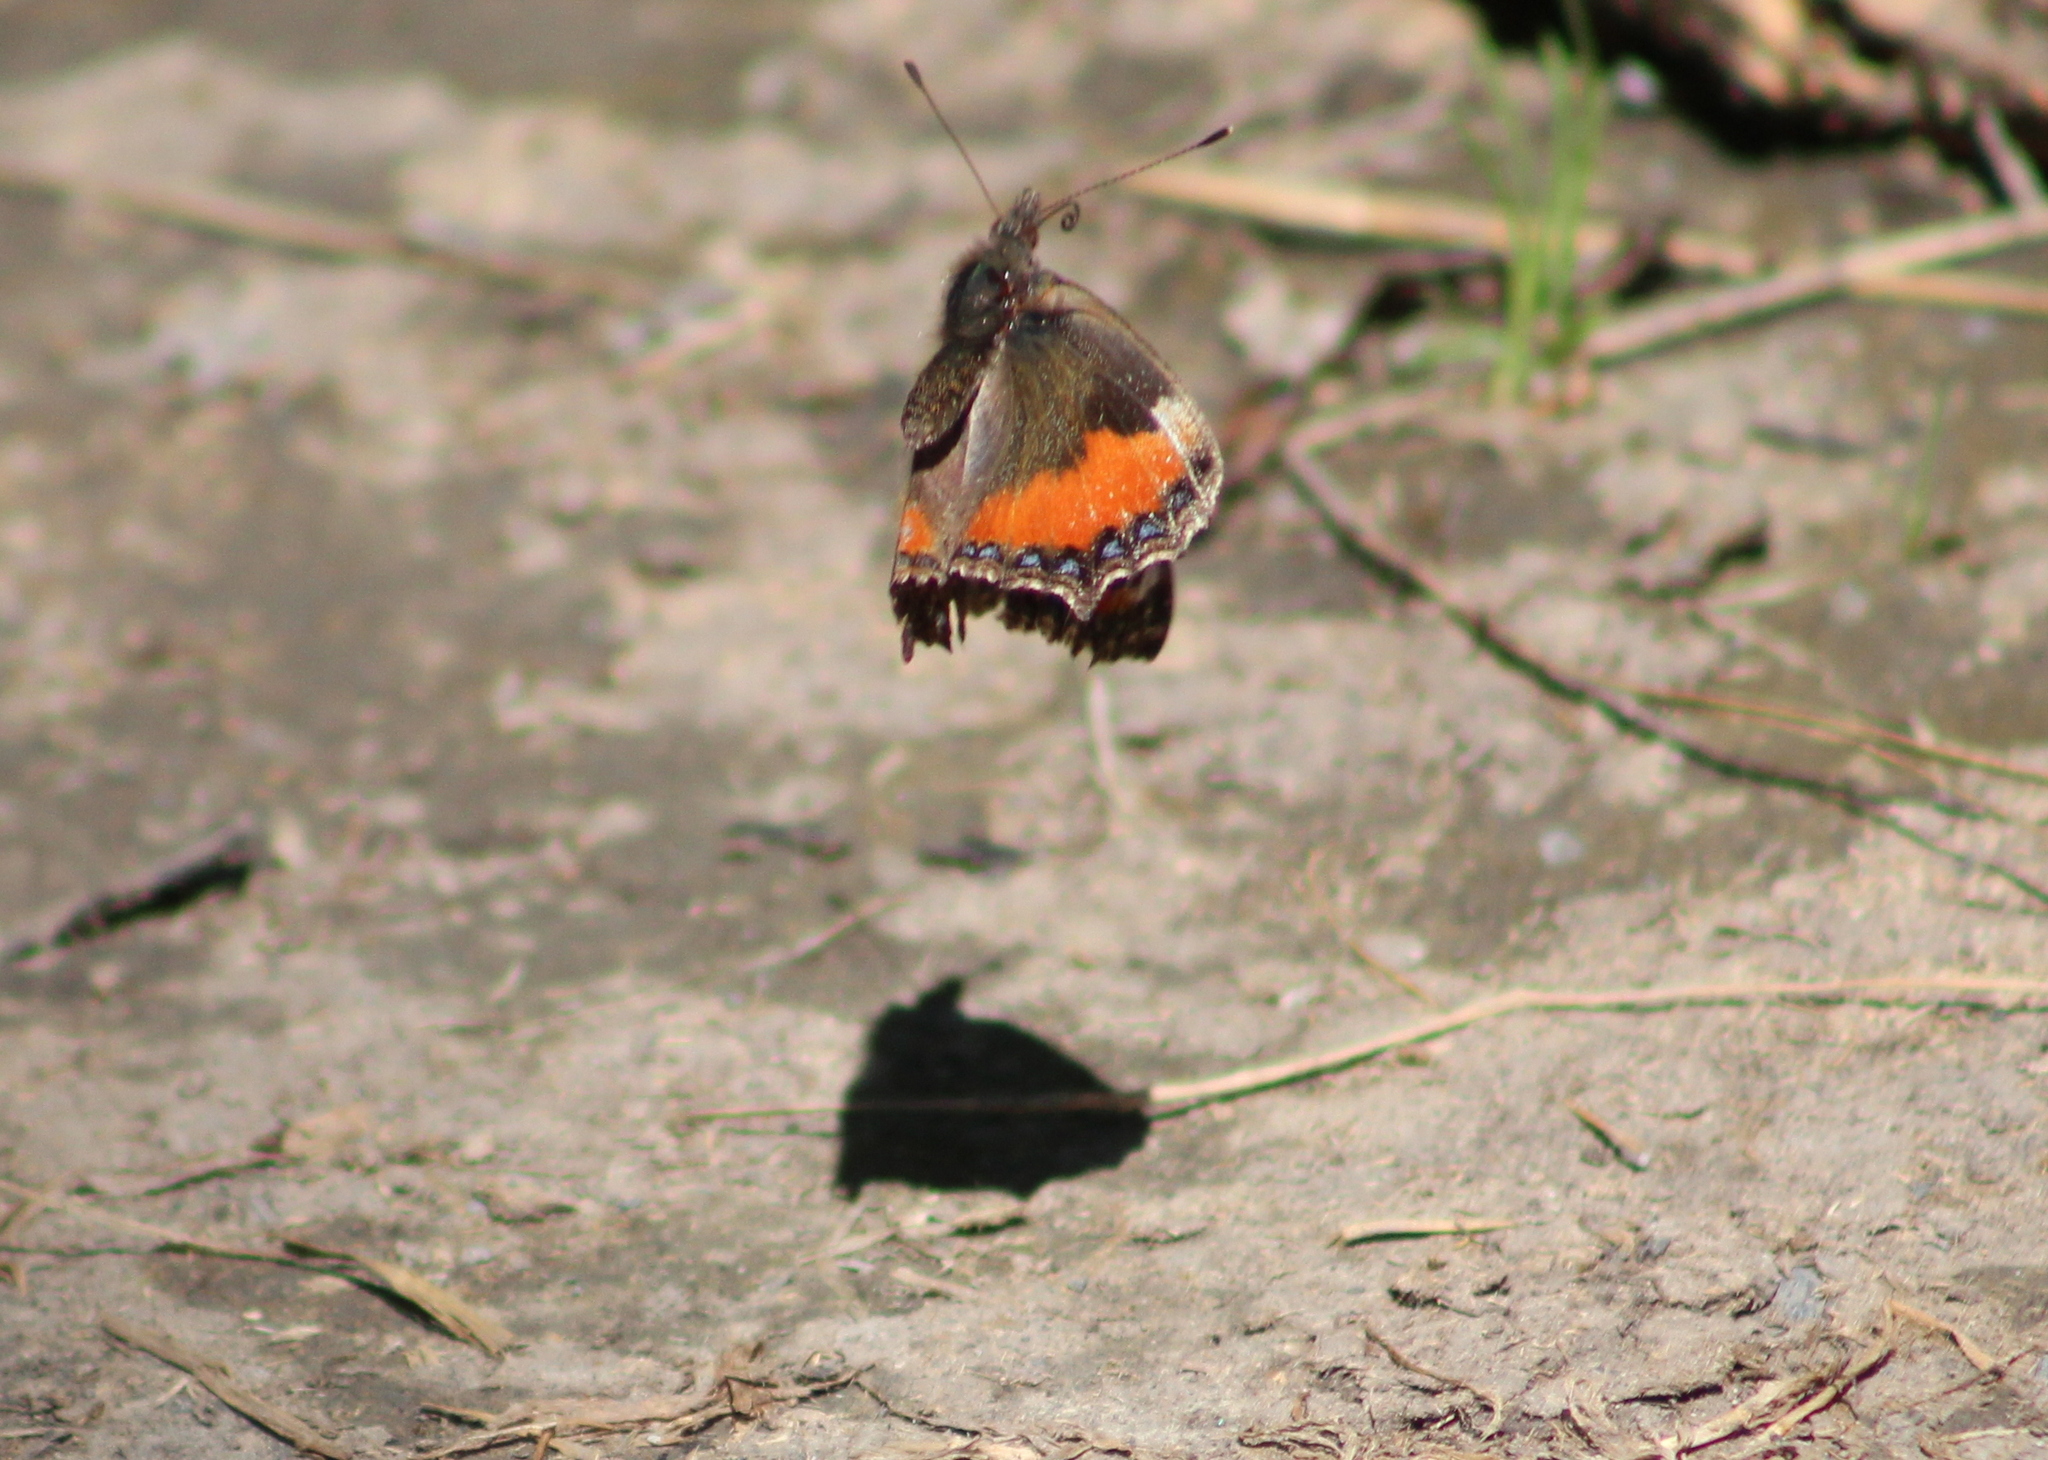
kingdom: Animalia
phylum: Arthropoda
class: Insecta
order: Lepidoptera
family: Nymphalidae
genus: Aglais
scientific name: Aglais urticae
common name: Small tortoiseshell
